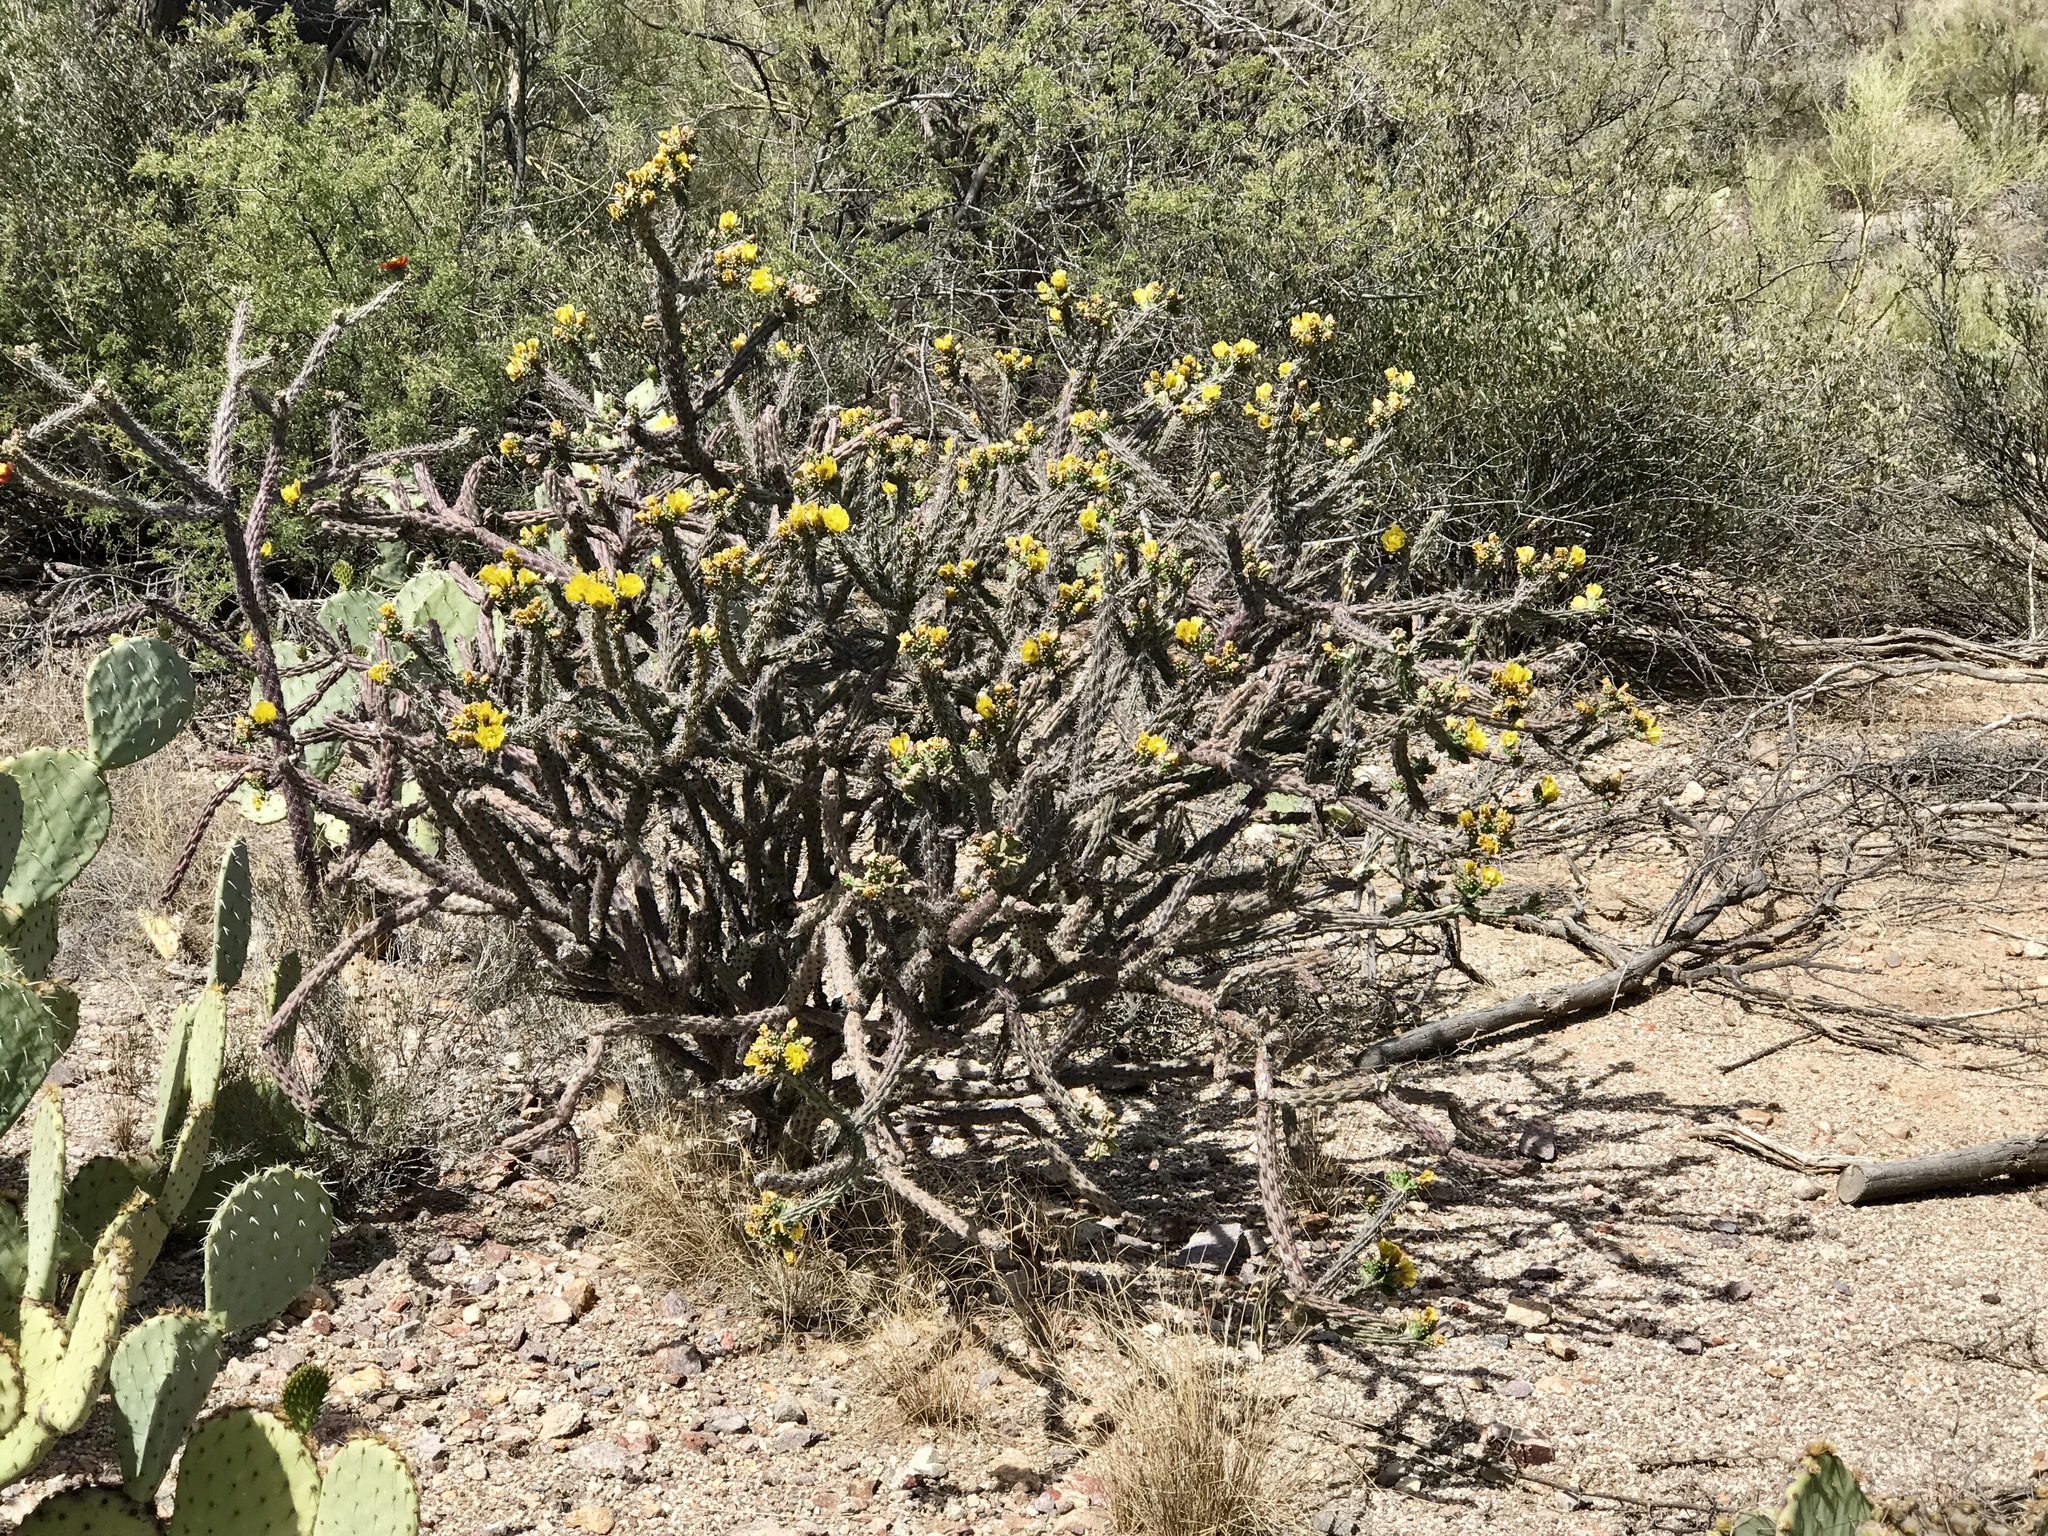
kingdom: Plantae
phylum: Tracheophyta
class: Magnoliopsida
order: Caryophyllales
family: Cactaceae
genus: Cylindropuntia
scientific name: Cylindropuntia acanthocarpa
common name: Buckhorn cholla
